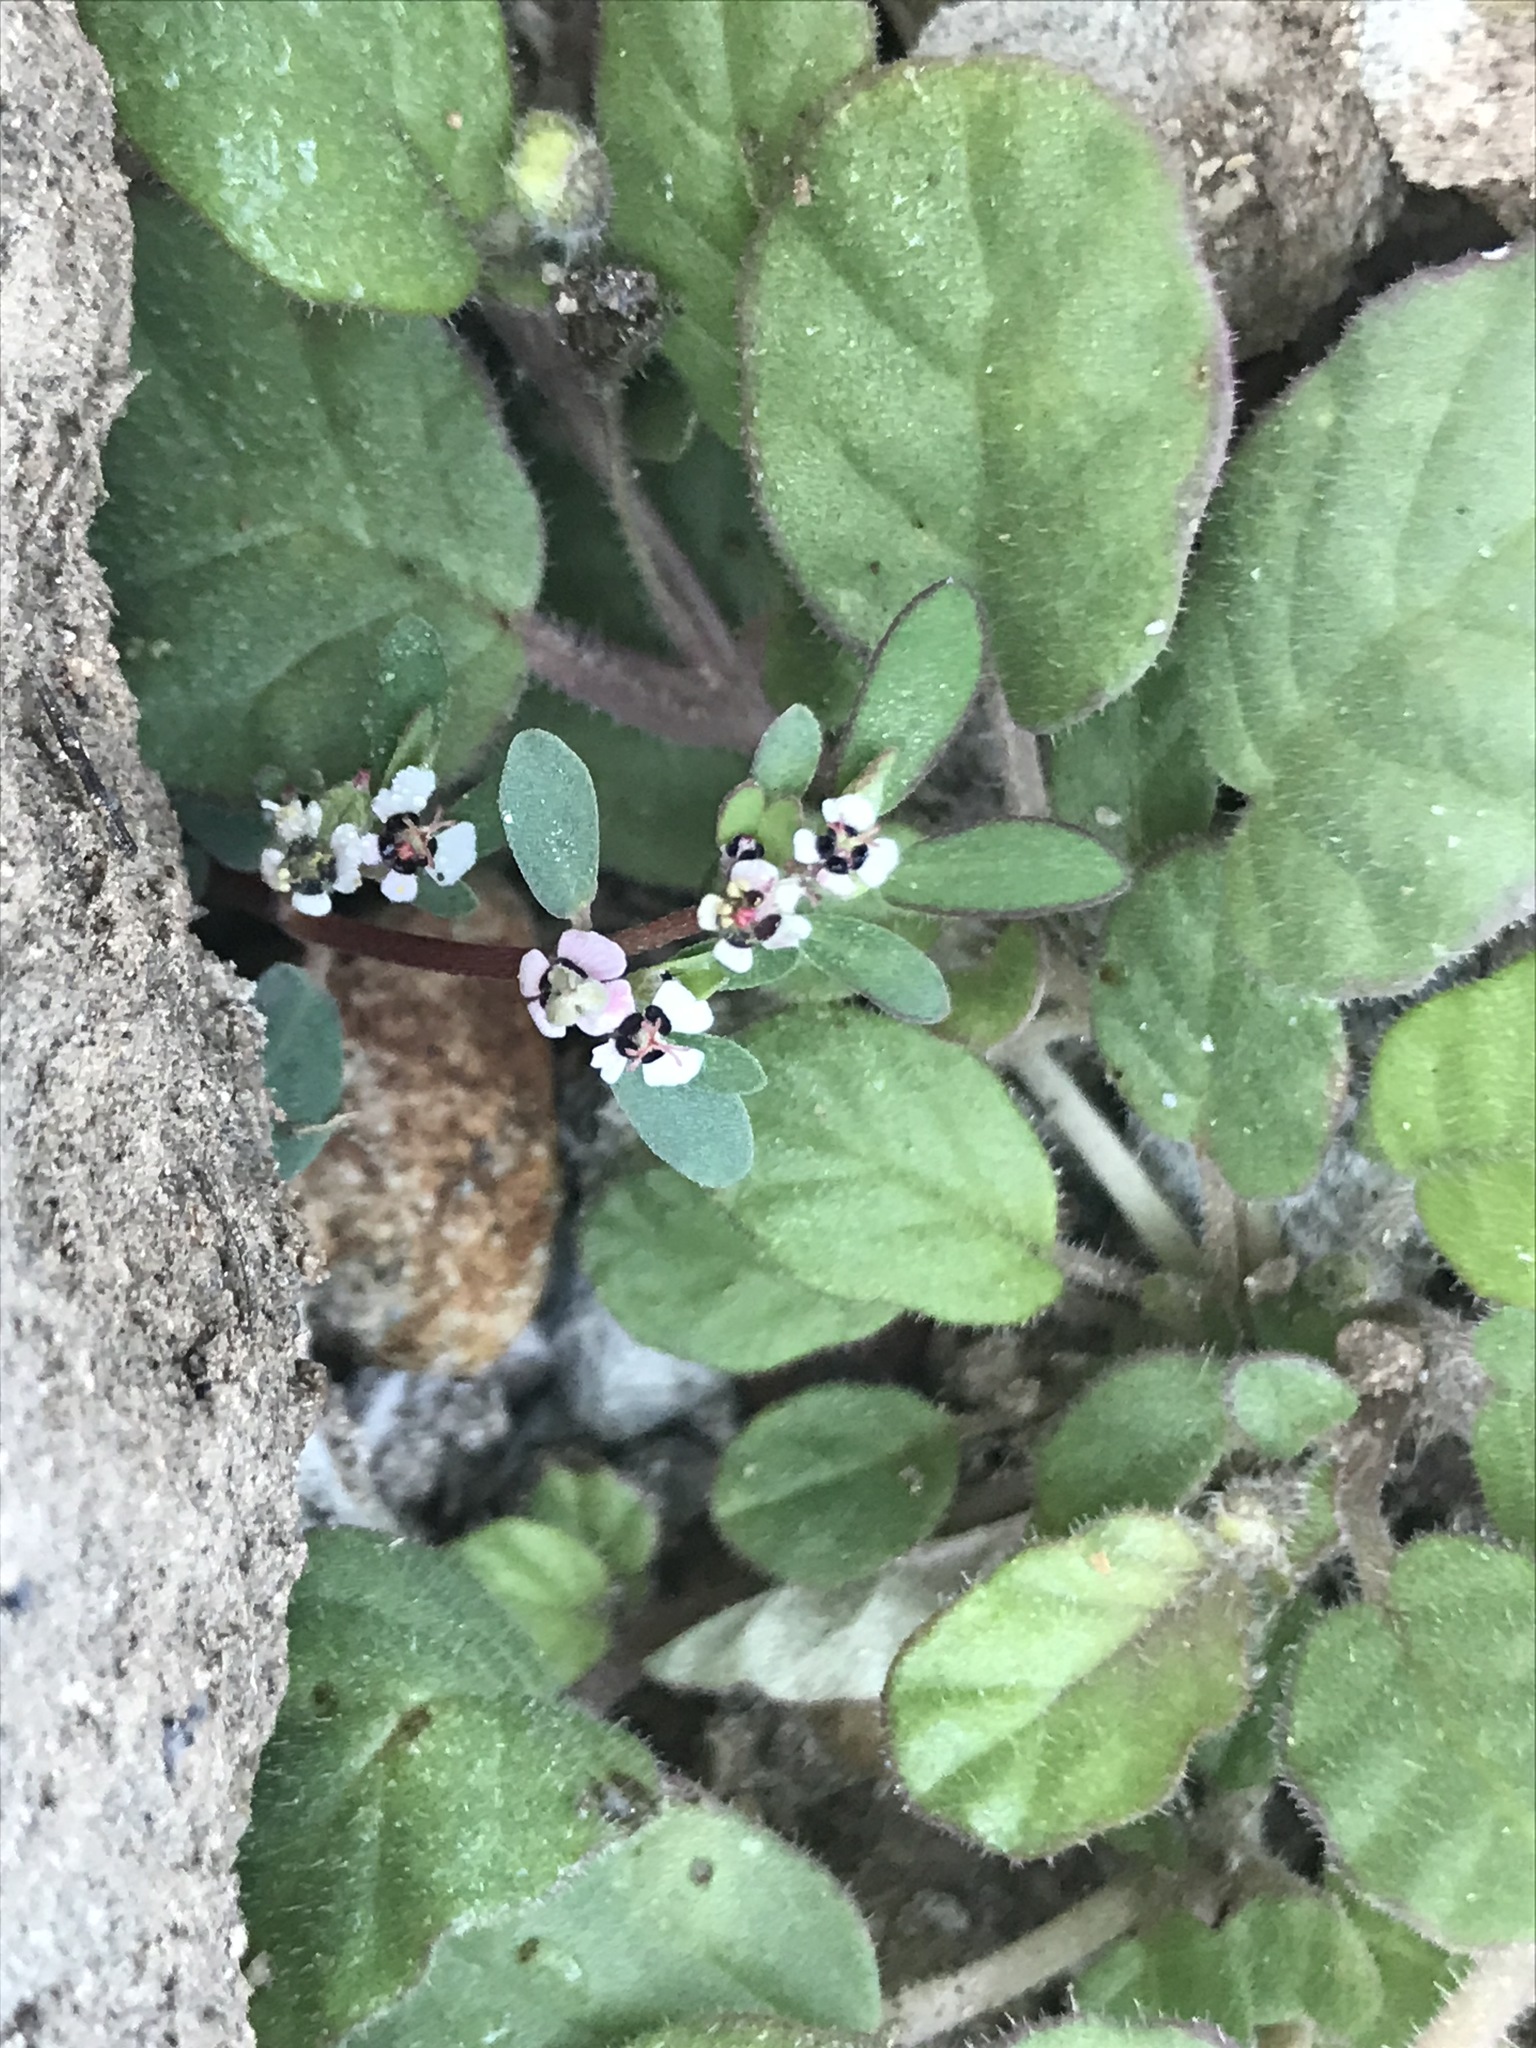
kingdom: Plantae
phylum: Tracheophyta
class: Magnoliopsida
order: Malpighiales
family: Euphorbiaceae
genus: Euphorbia
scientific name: Euphorbia pediculifera
